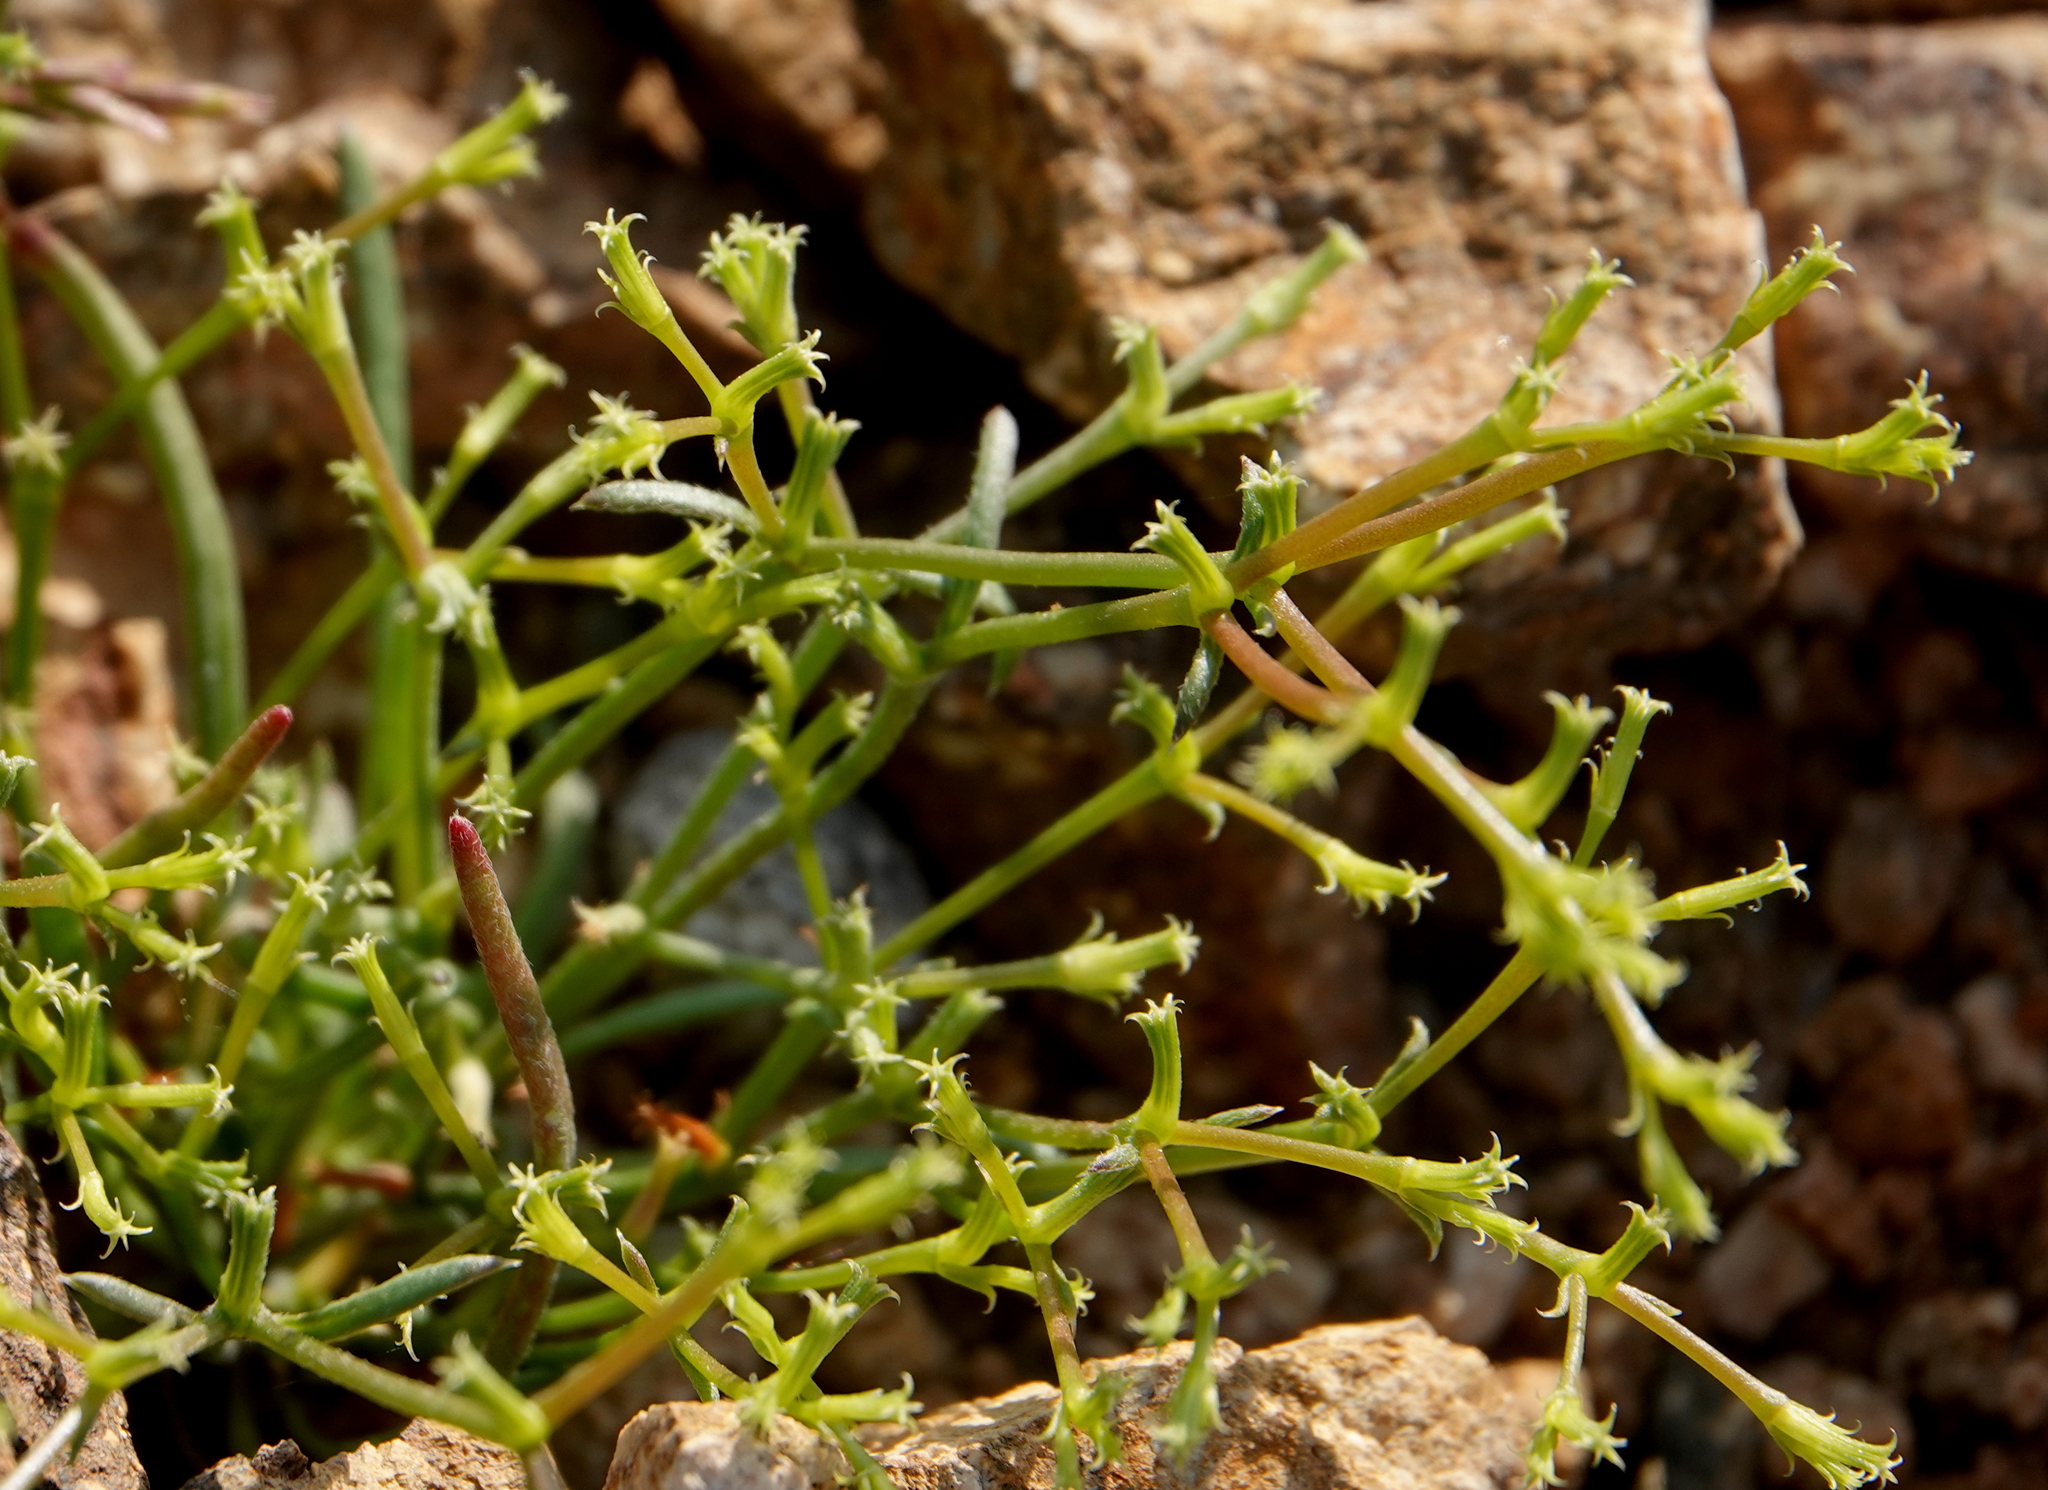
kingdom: Plantae
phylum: Tracheophyta
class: Magnoliopsida
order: Caryophyllales
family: Polygonaceae
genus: Chorizanthe
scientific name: Chorizanthe brevicornu
